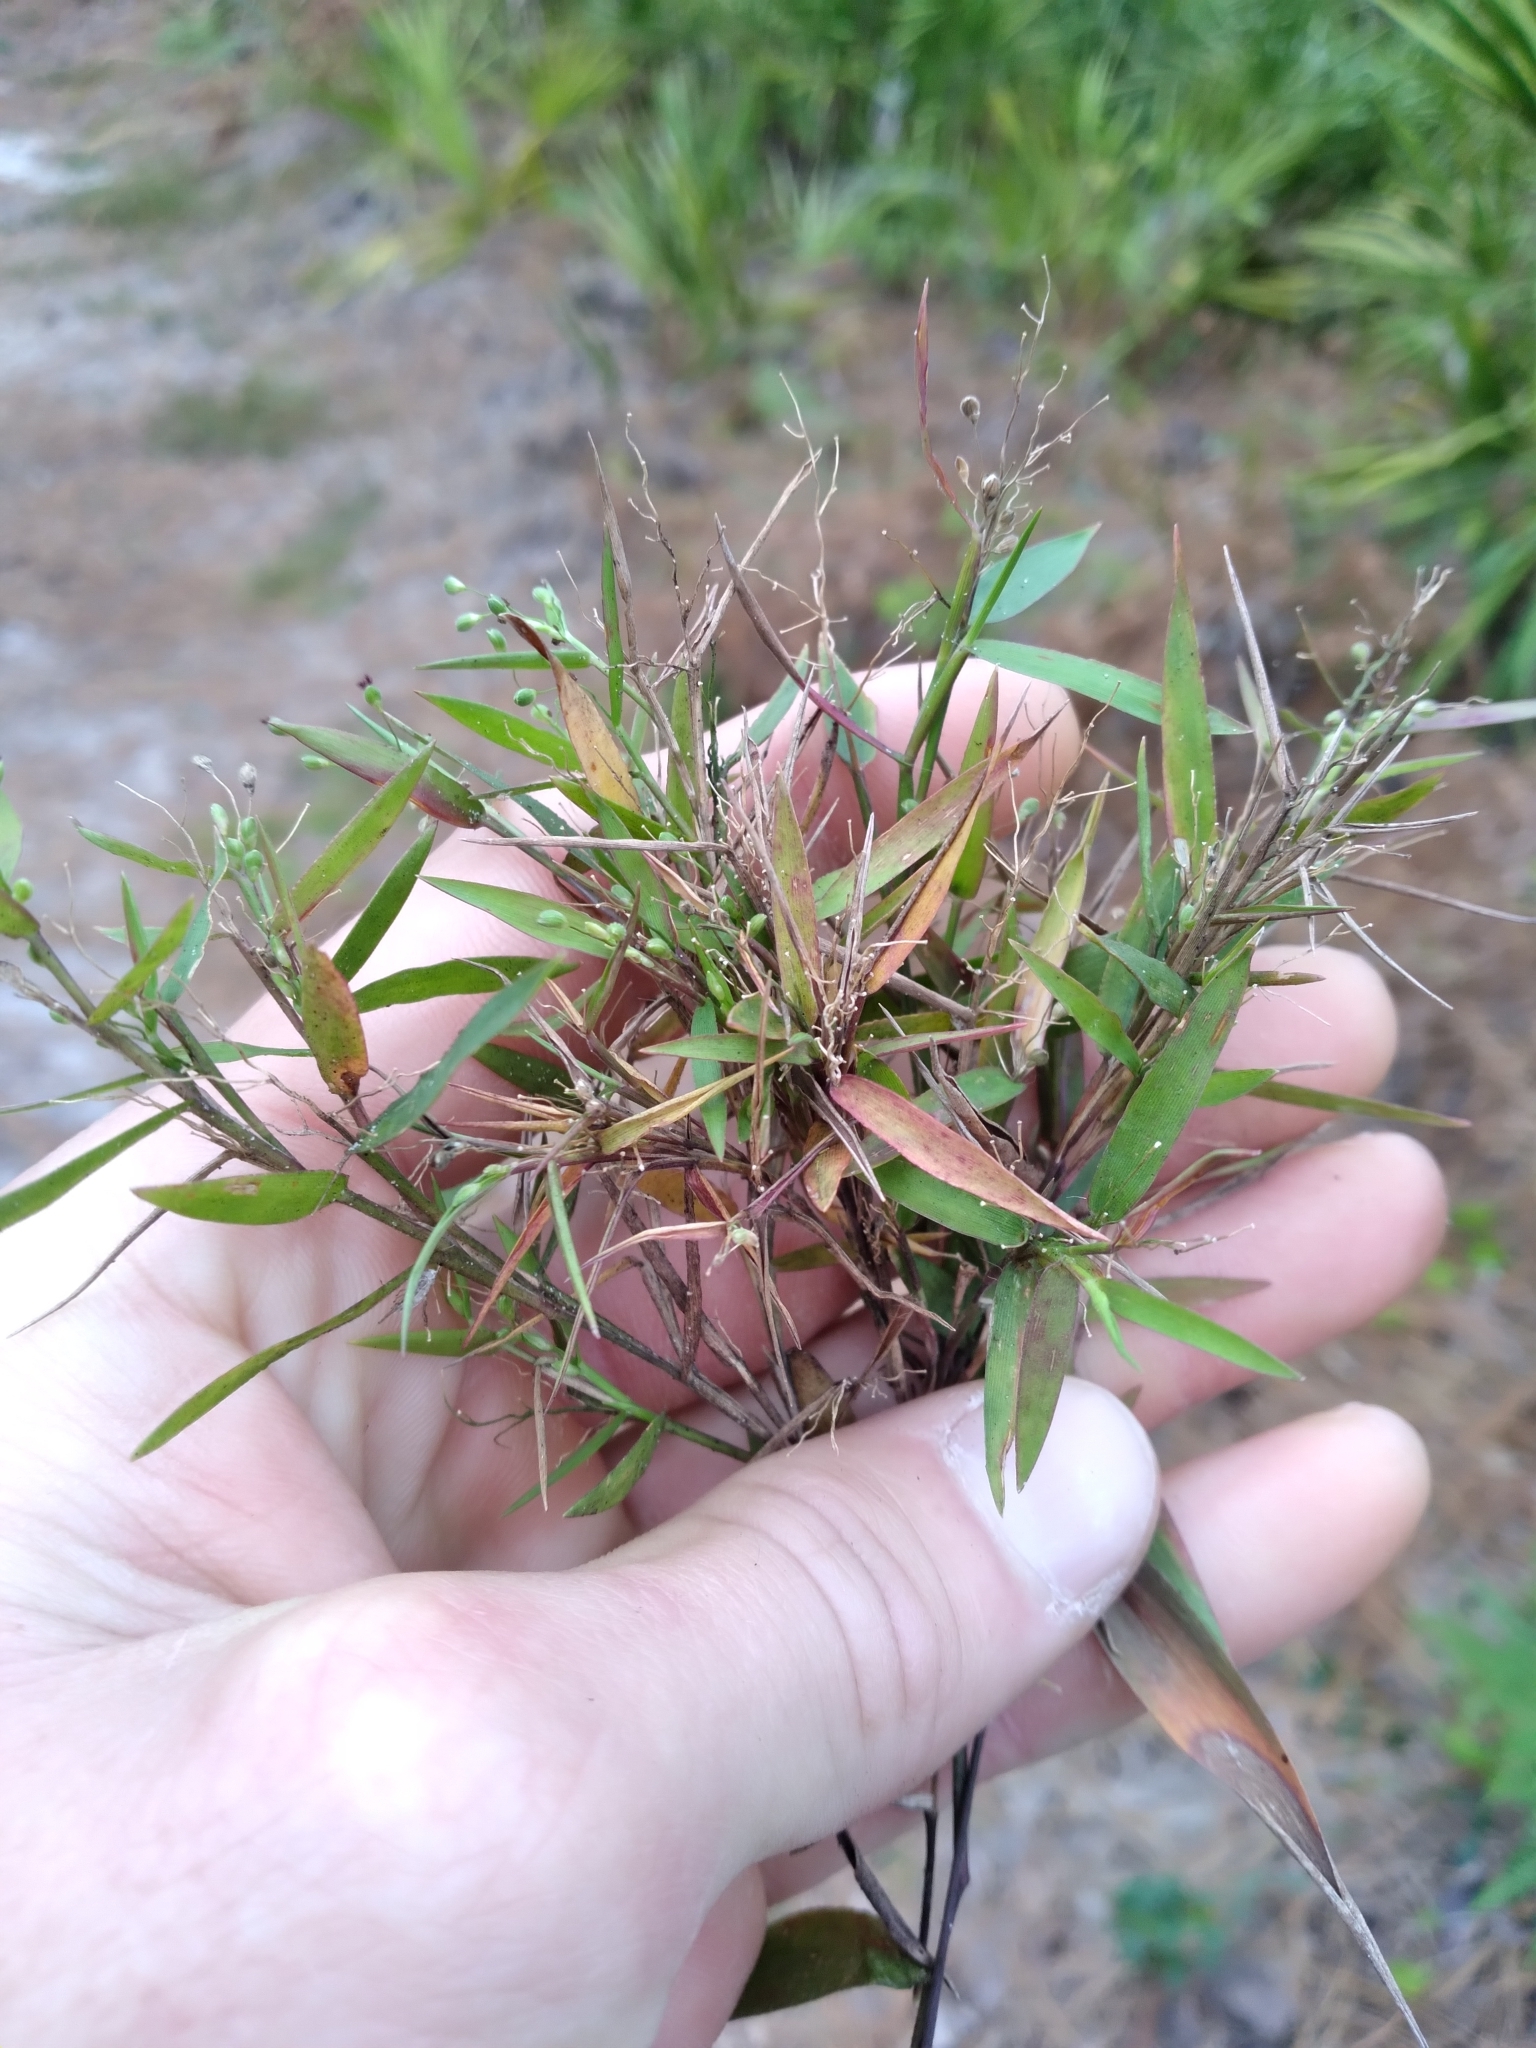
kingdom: Plantae
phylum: Tracheophyta
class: Liliopsida
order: Poales
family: Poaceae
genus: Dichanthelium
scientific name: Dichanthelium webberianum
